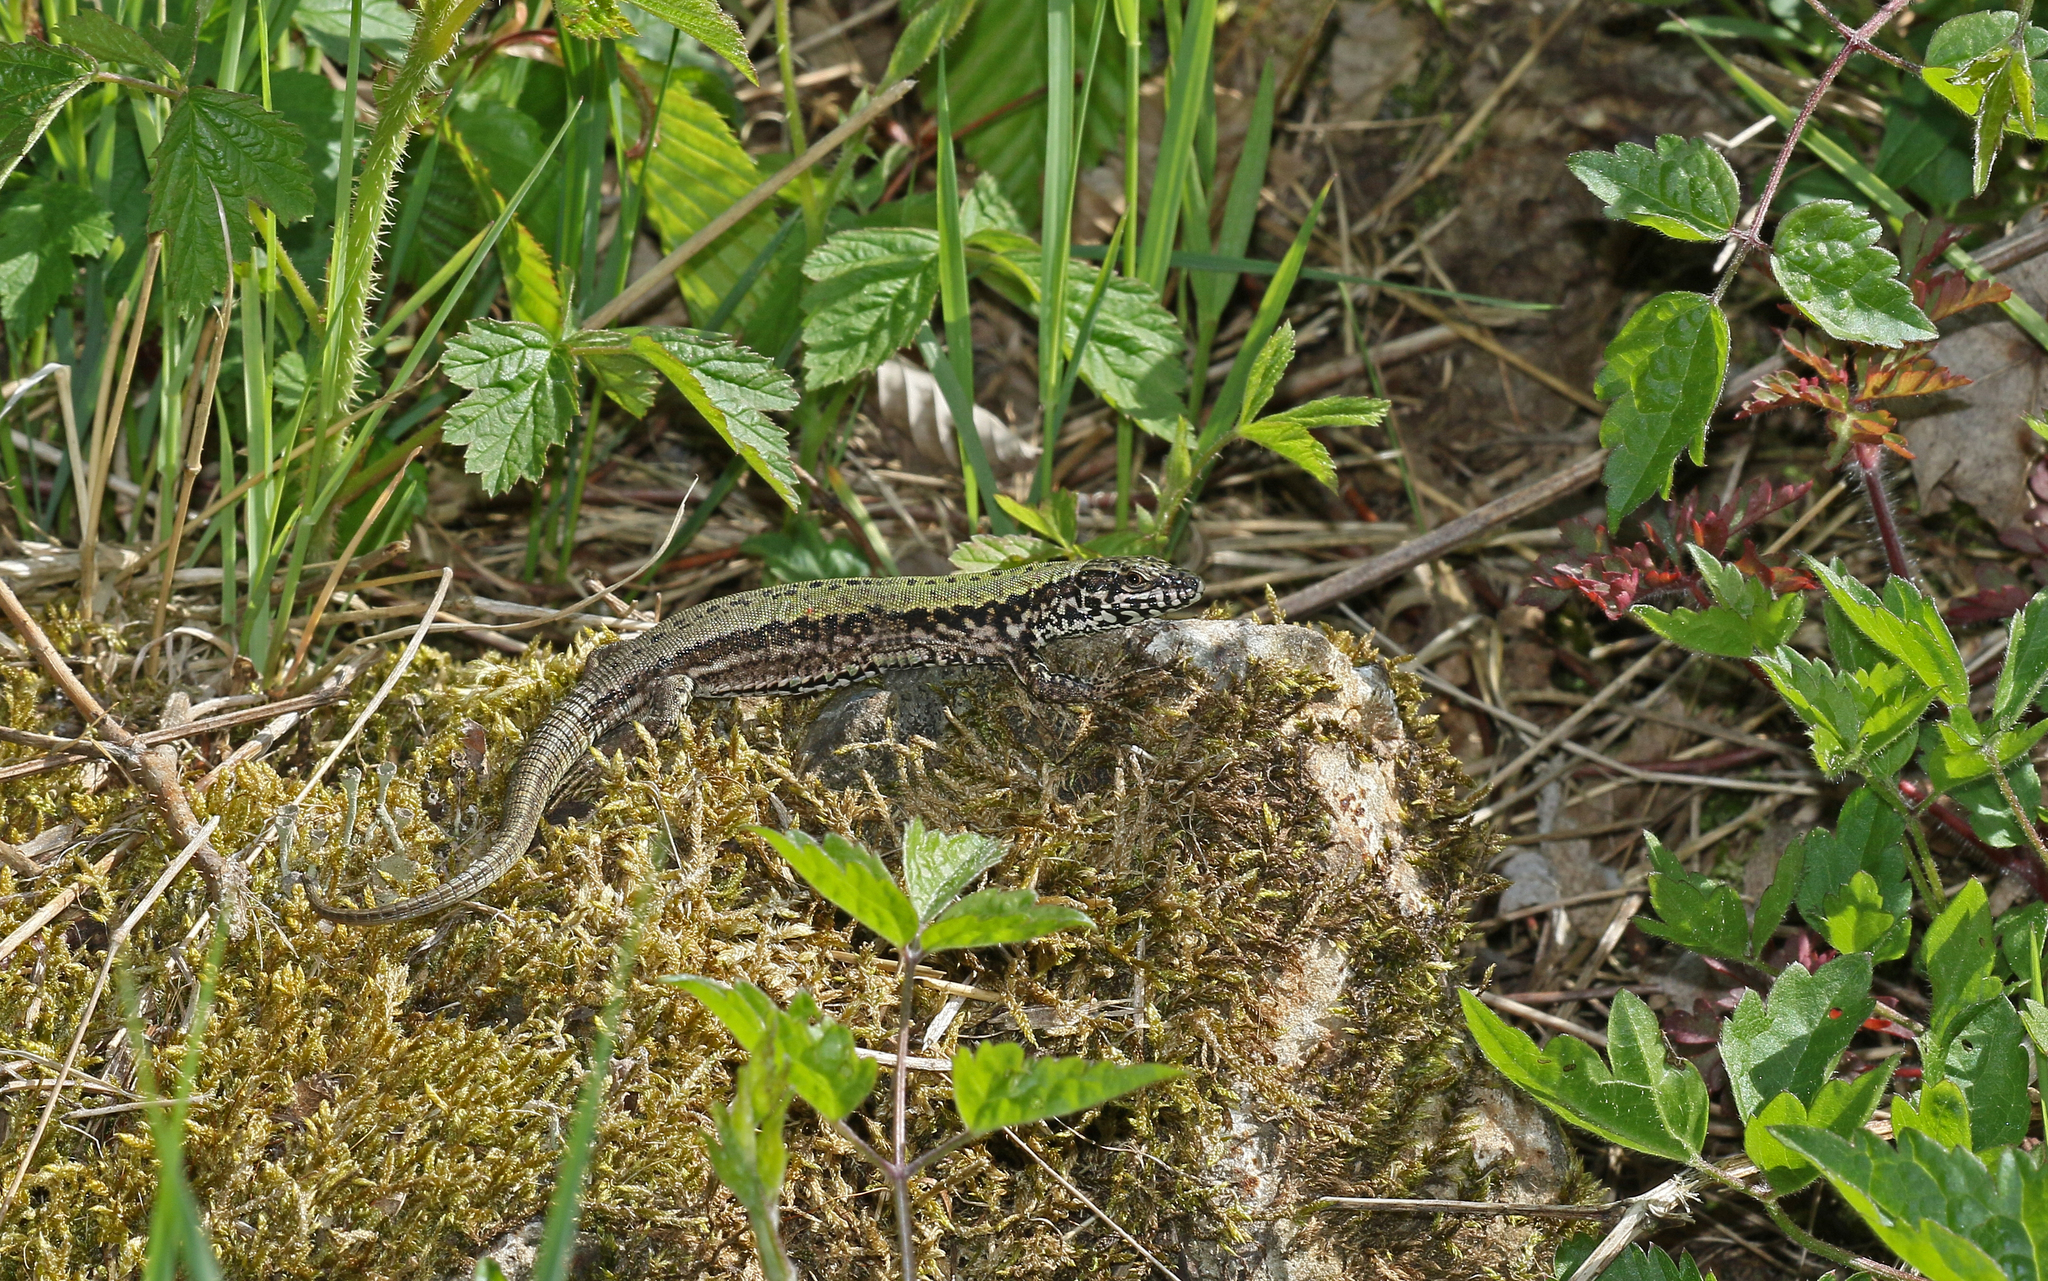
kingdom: Animalia
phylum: Chordata
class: Squamata
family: Lacertidae
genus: Podarcis
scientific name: Podarcis muralis
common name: Common wall lizard
